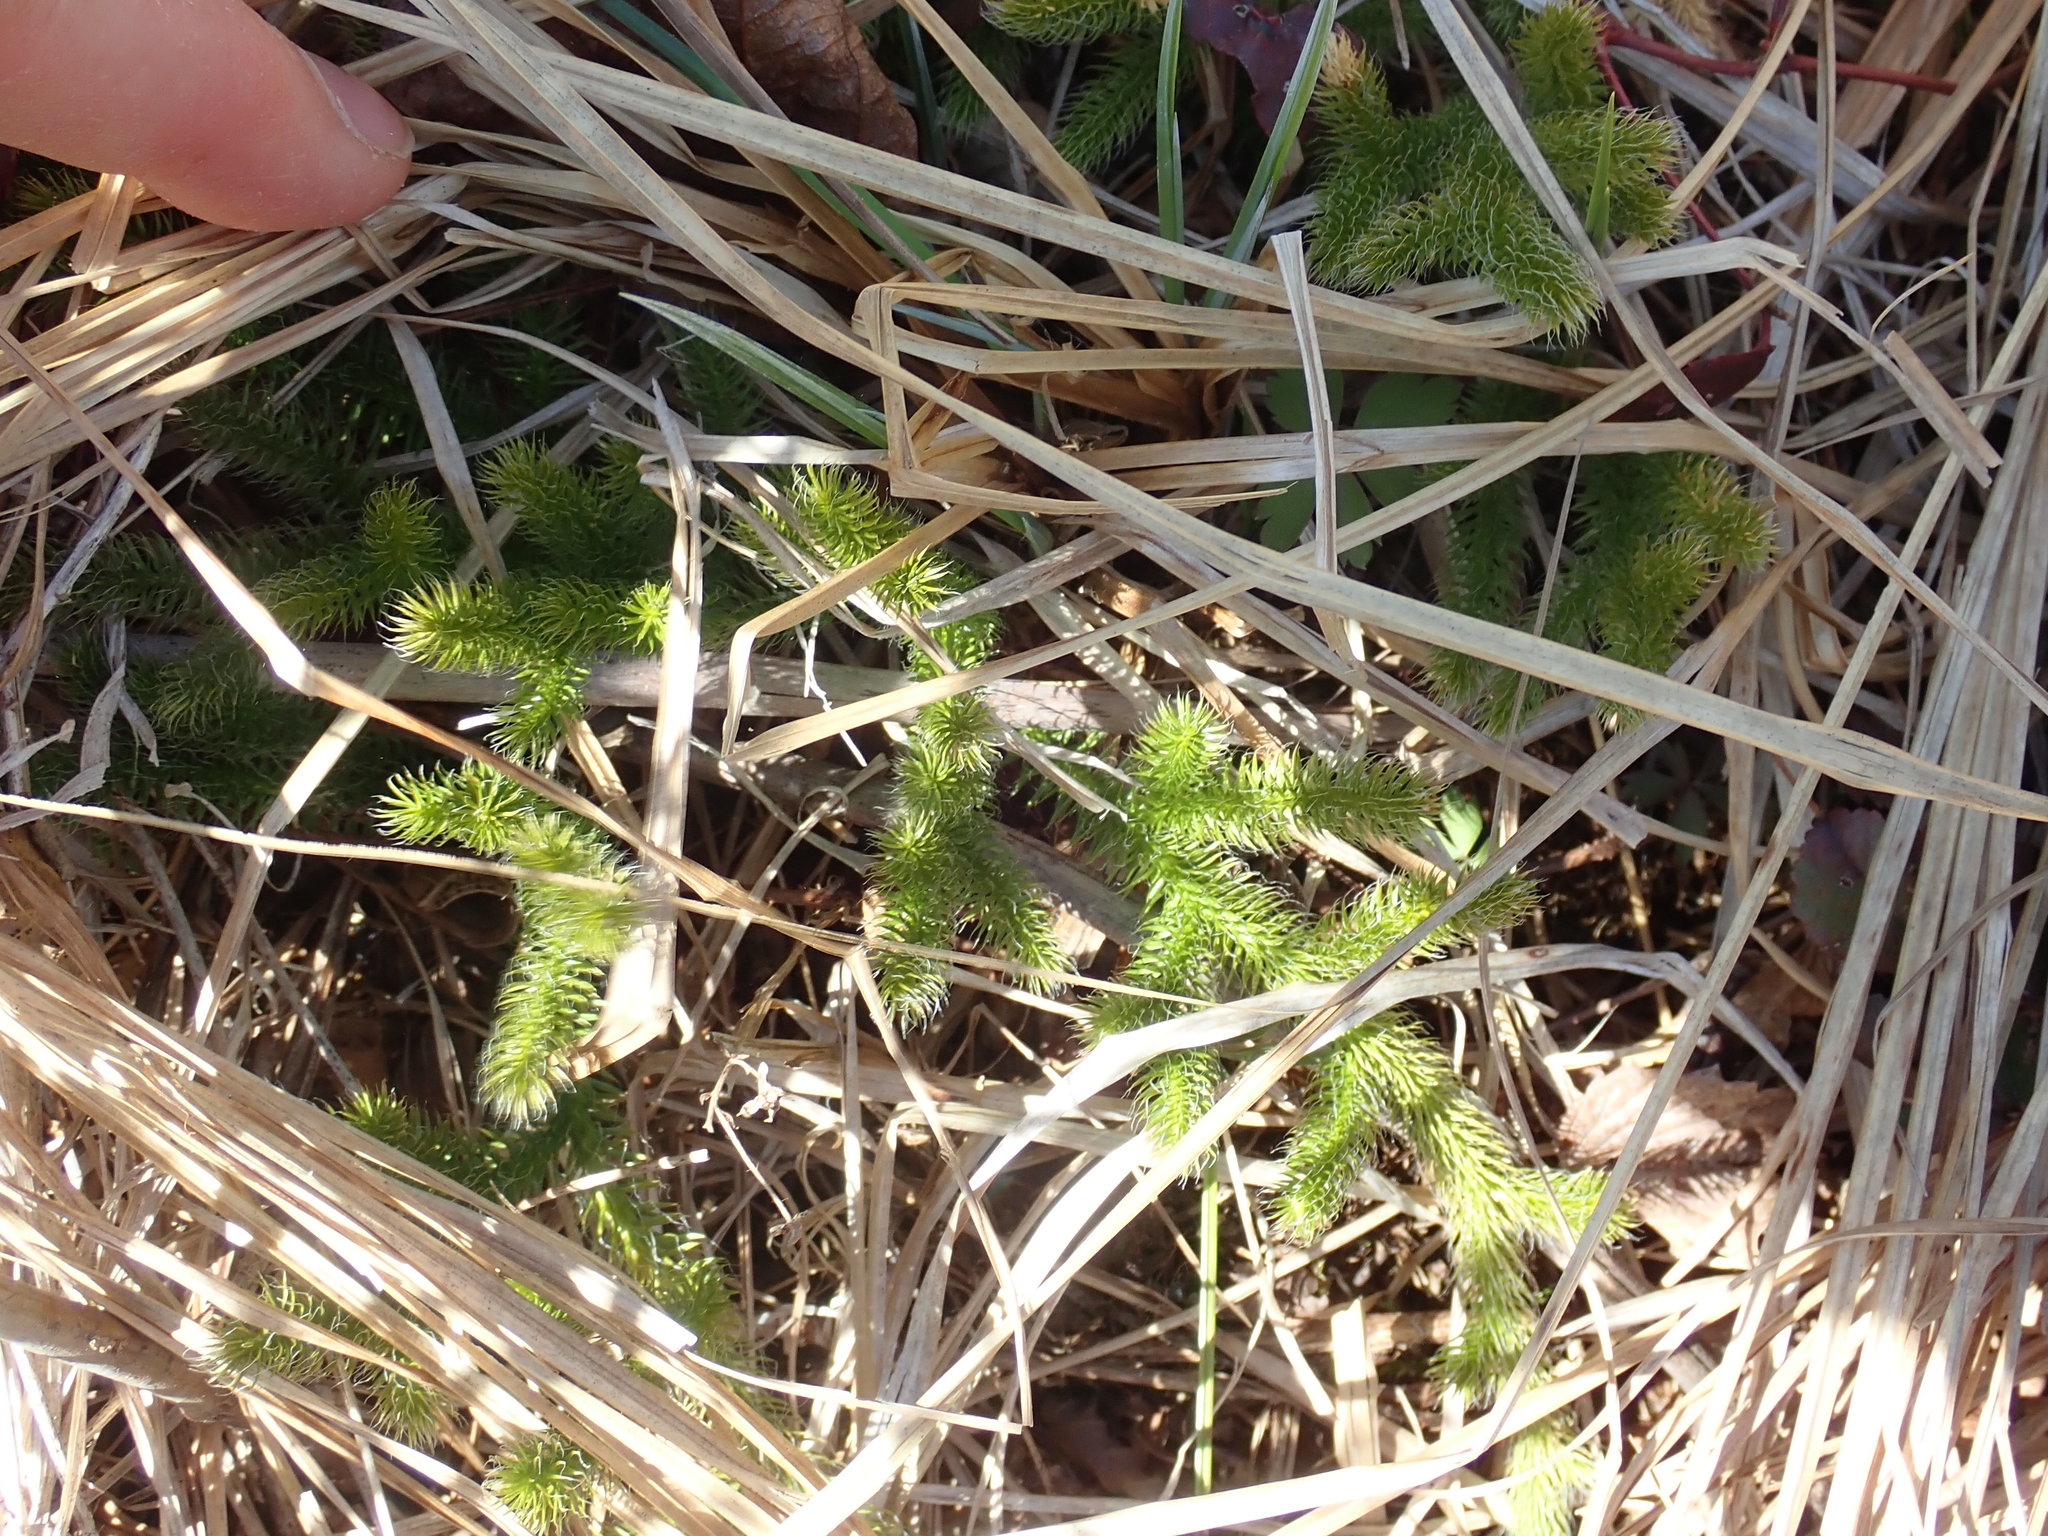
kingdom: Plantae
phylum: Tracheophyta
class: Lycopodiopsida
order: Lycopodiales
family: Lycopodiaceae
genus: Lycopodium
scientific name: Lycopodium clavatum
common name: Stag's-horn clubmoss
